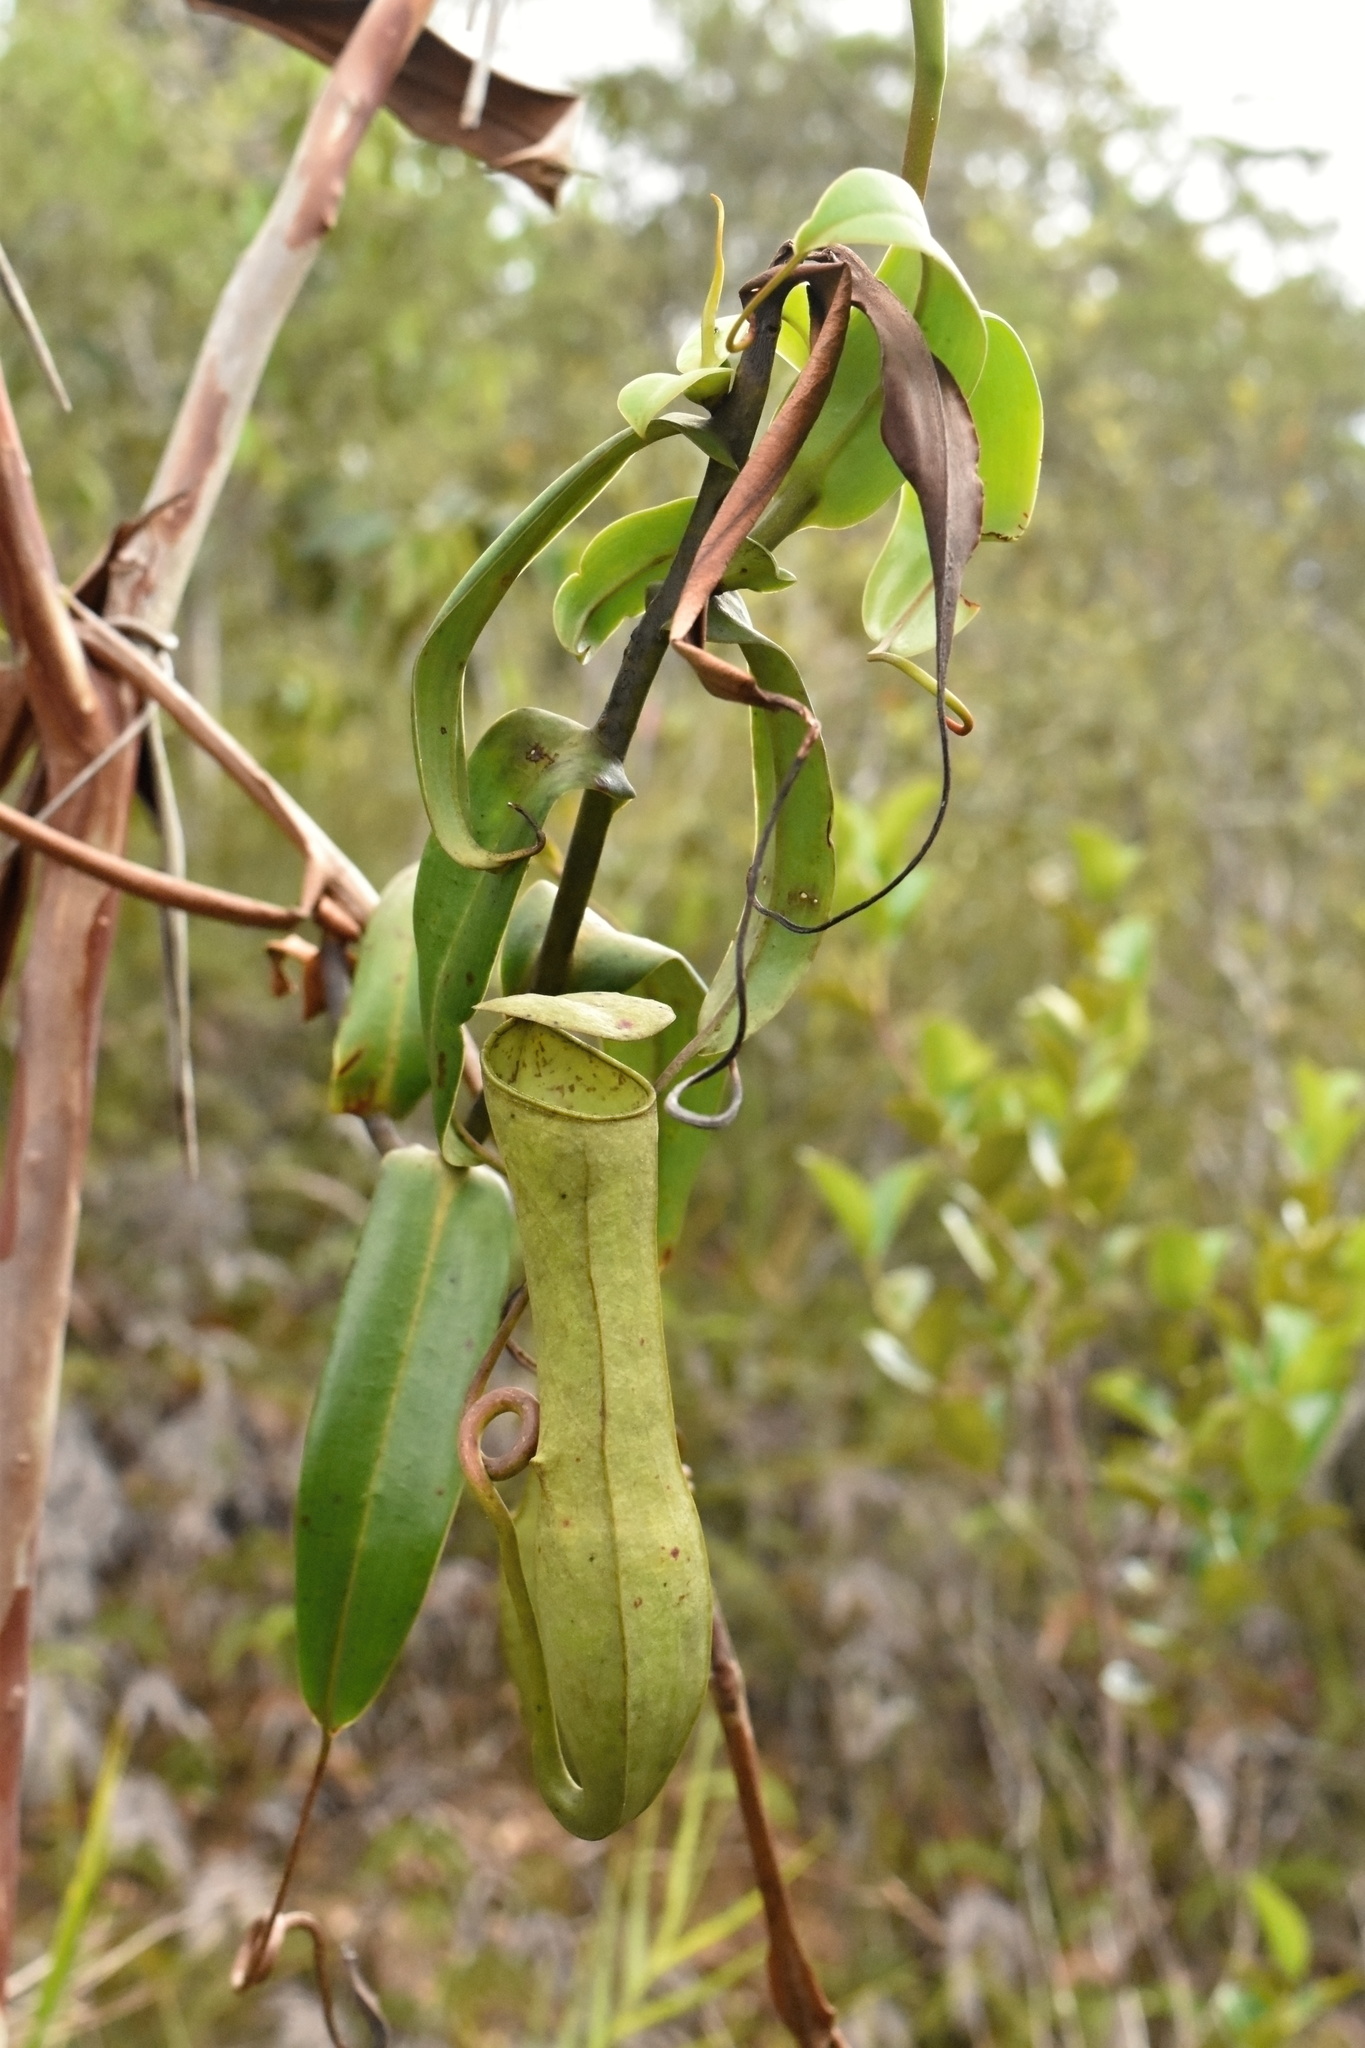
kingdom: Plantae
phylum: Tracheophyta
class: Magnoliopsida
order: Caryophyllales
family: Nepenthaceae
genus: Nepenthes
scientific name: Nepenthes gracilis
